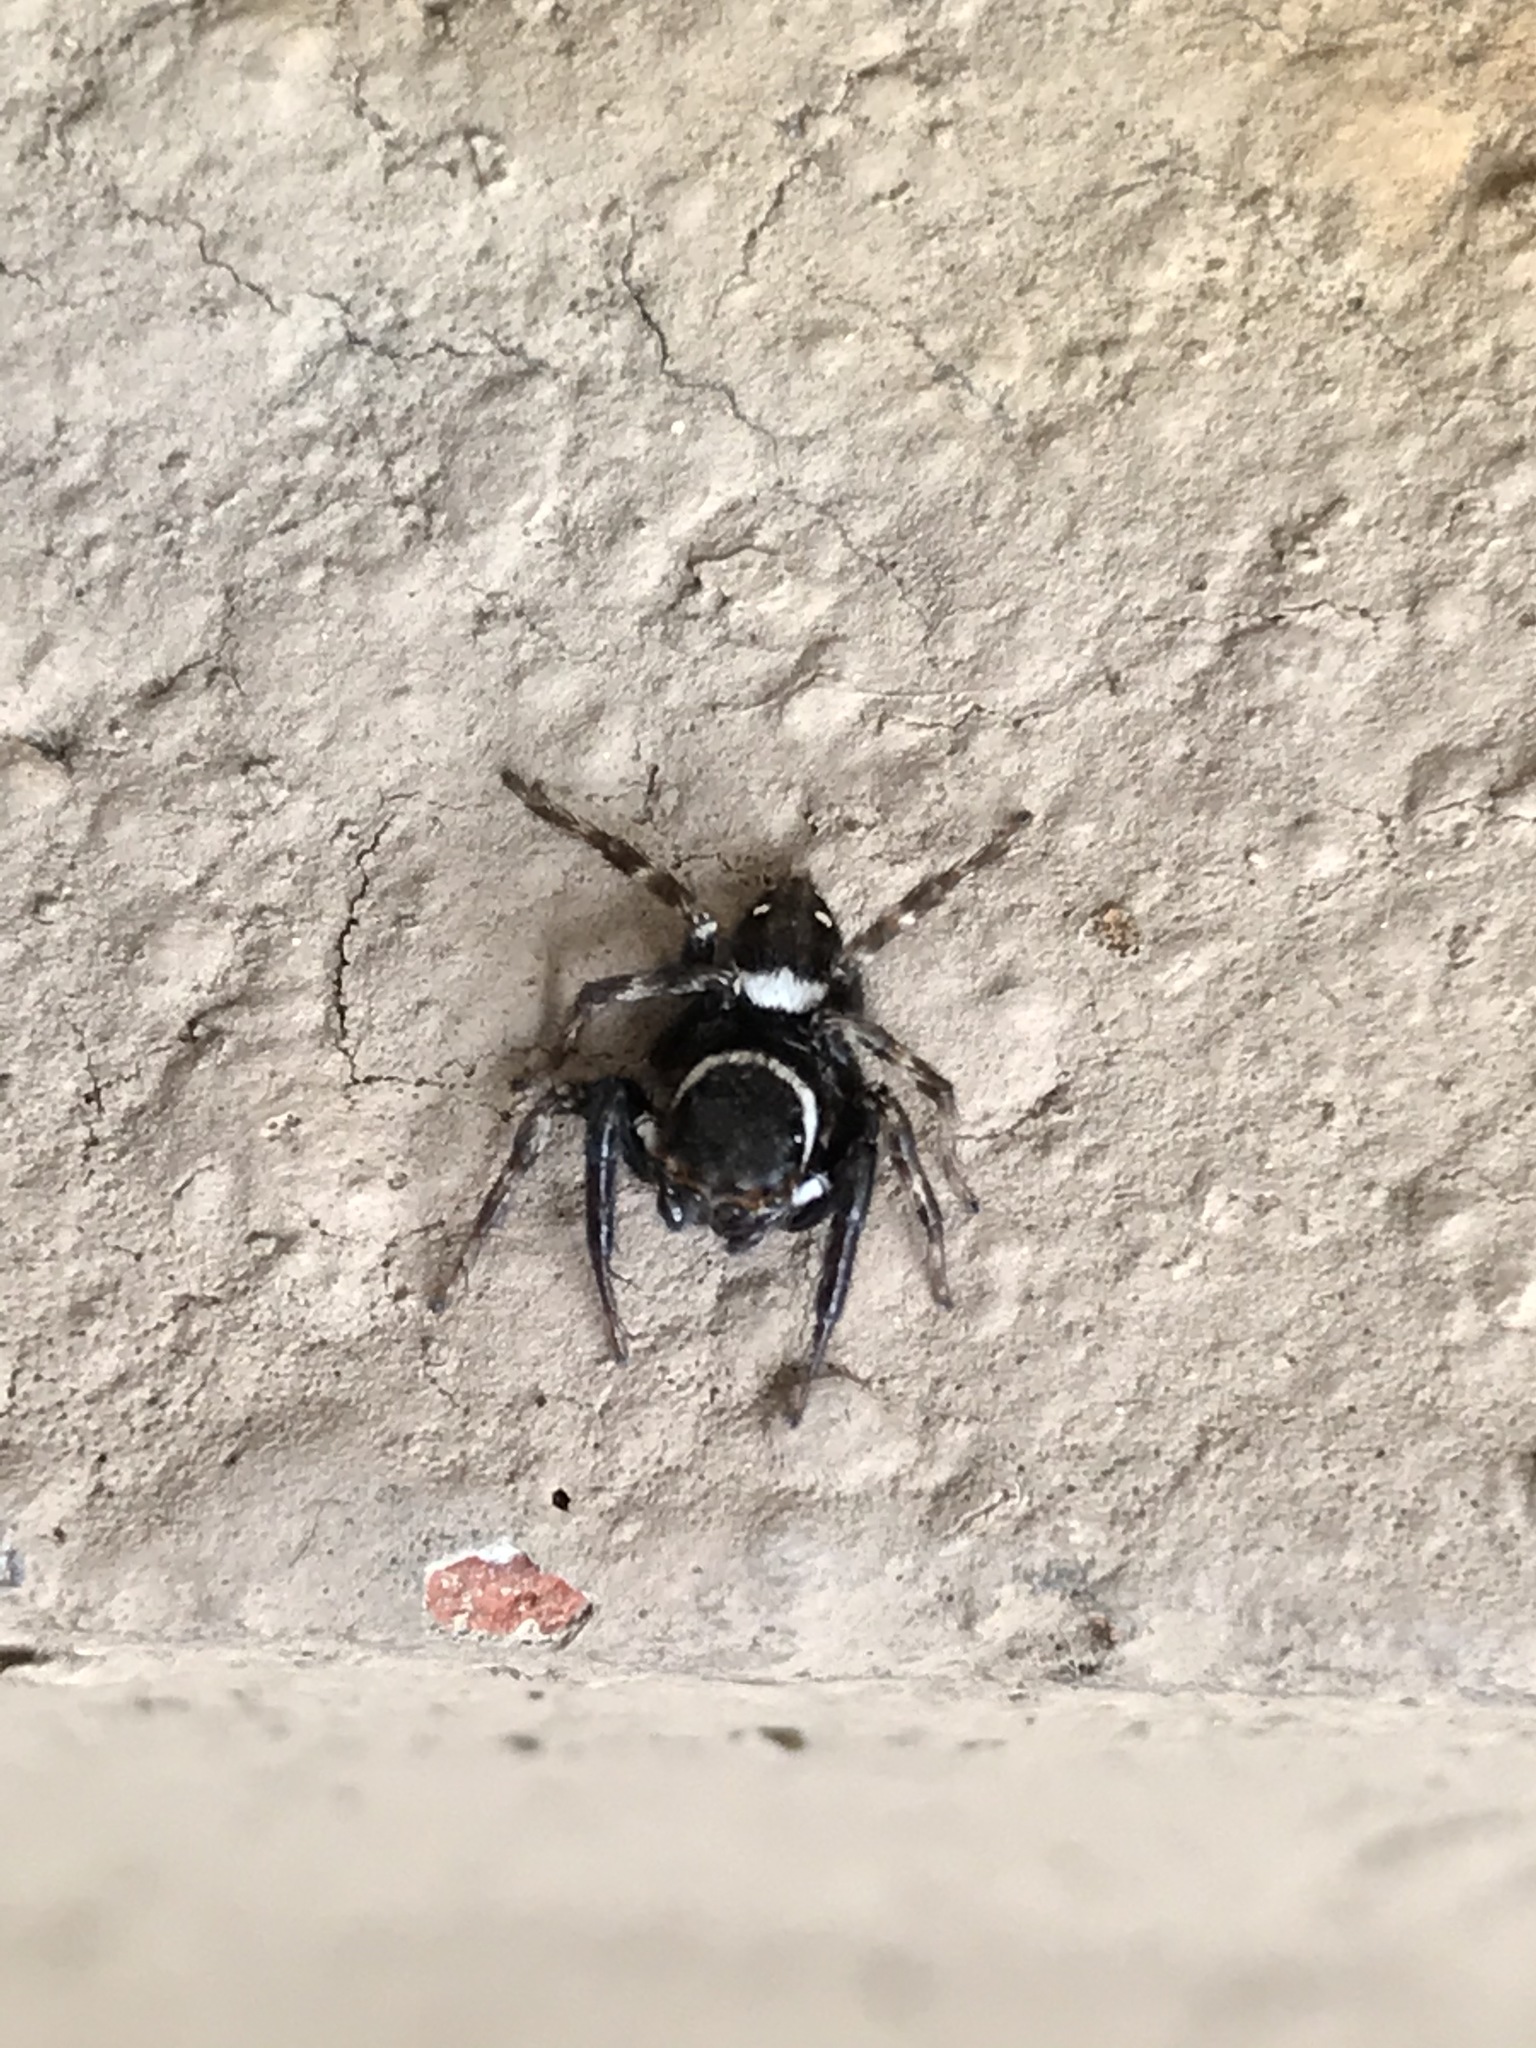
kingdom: Animalia
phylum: Arthropoda
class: Arachnida
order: Araneae
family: Salticidae
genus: Hasarius
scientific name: Hasarius adansoni
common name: Jumping spider
